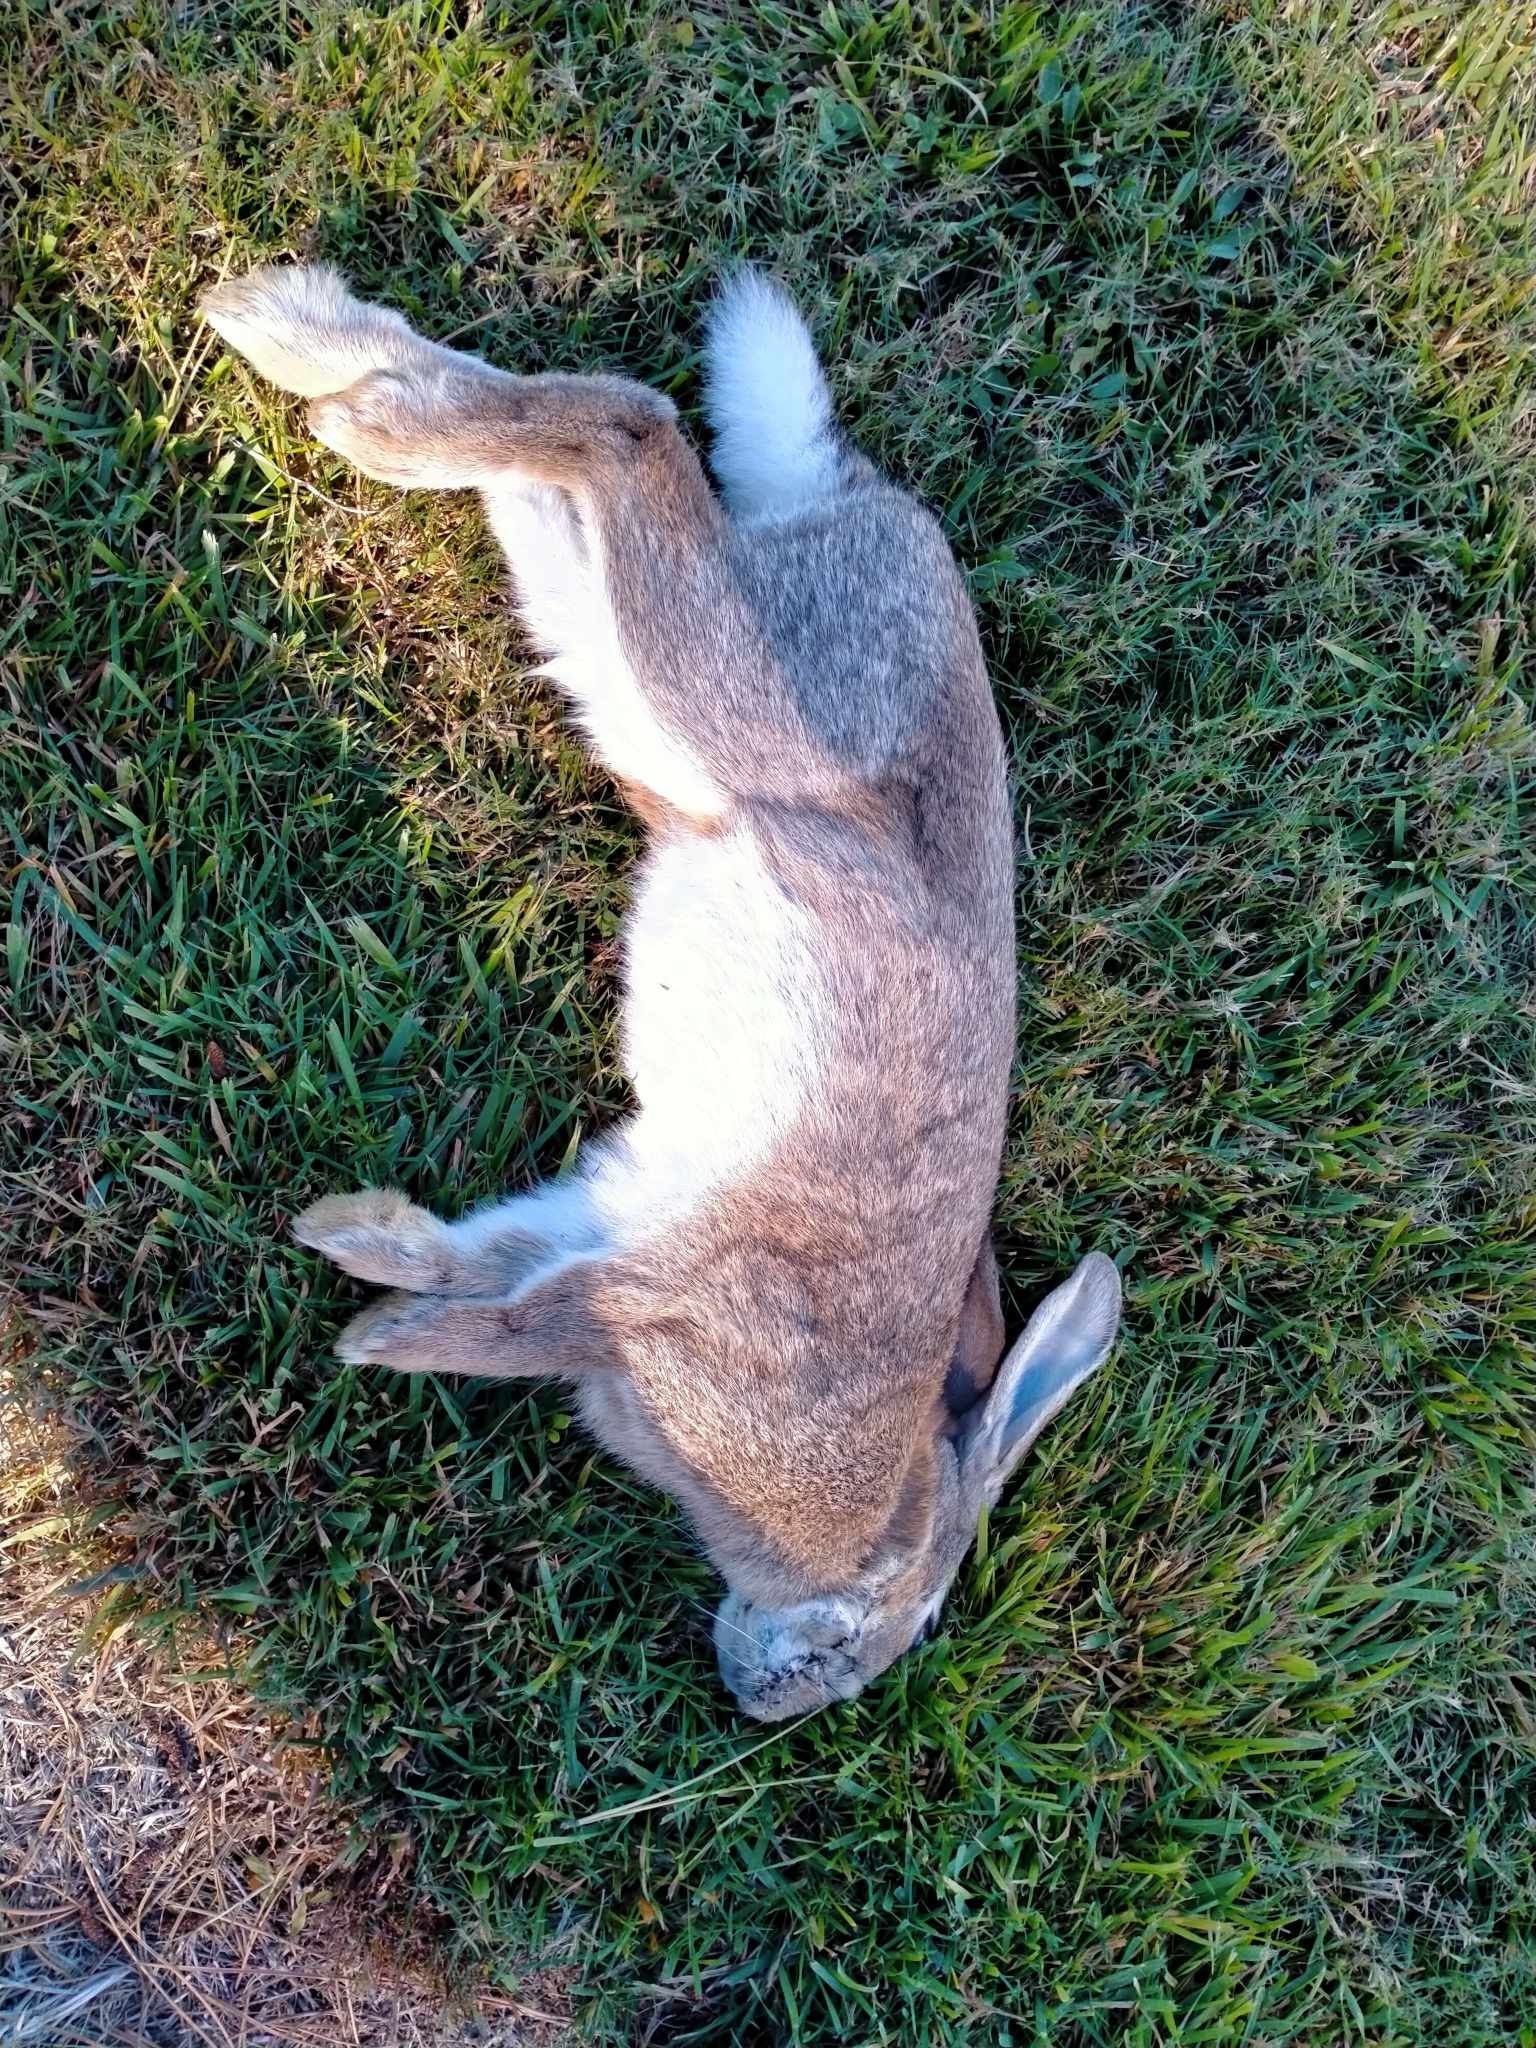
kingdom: Animalia
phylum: Chordata
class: Mammalia
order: Lagomorpha
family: Leporidae
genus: Oryctolagus
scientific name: Oryctolagus cuniculus
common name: European rabbit
